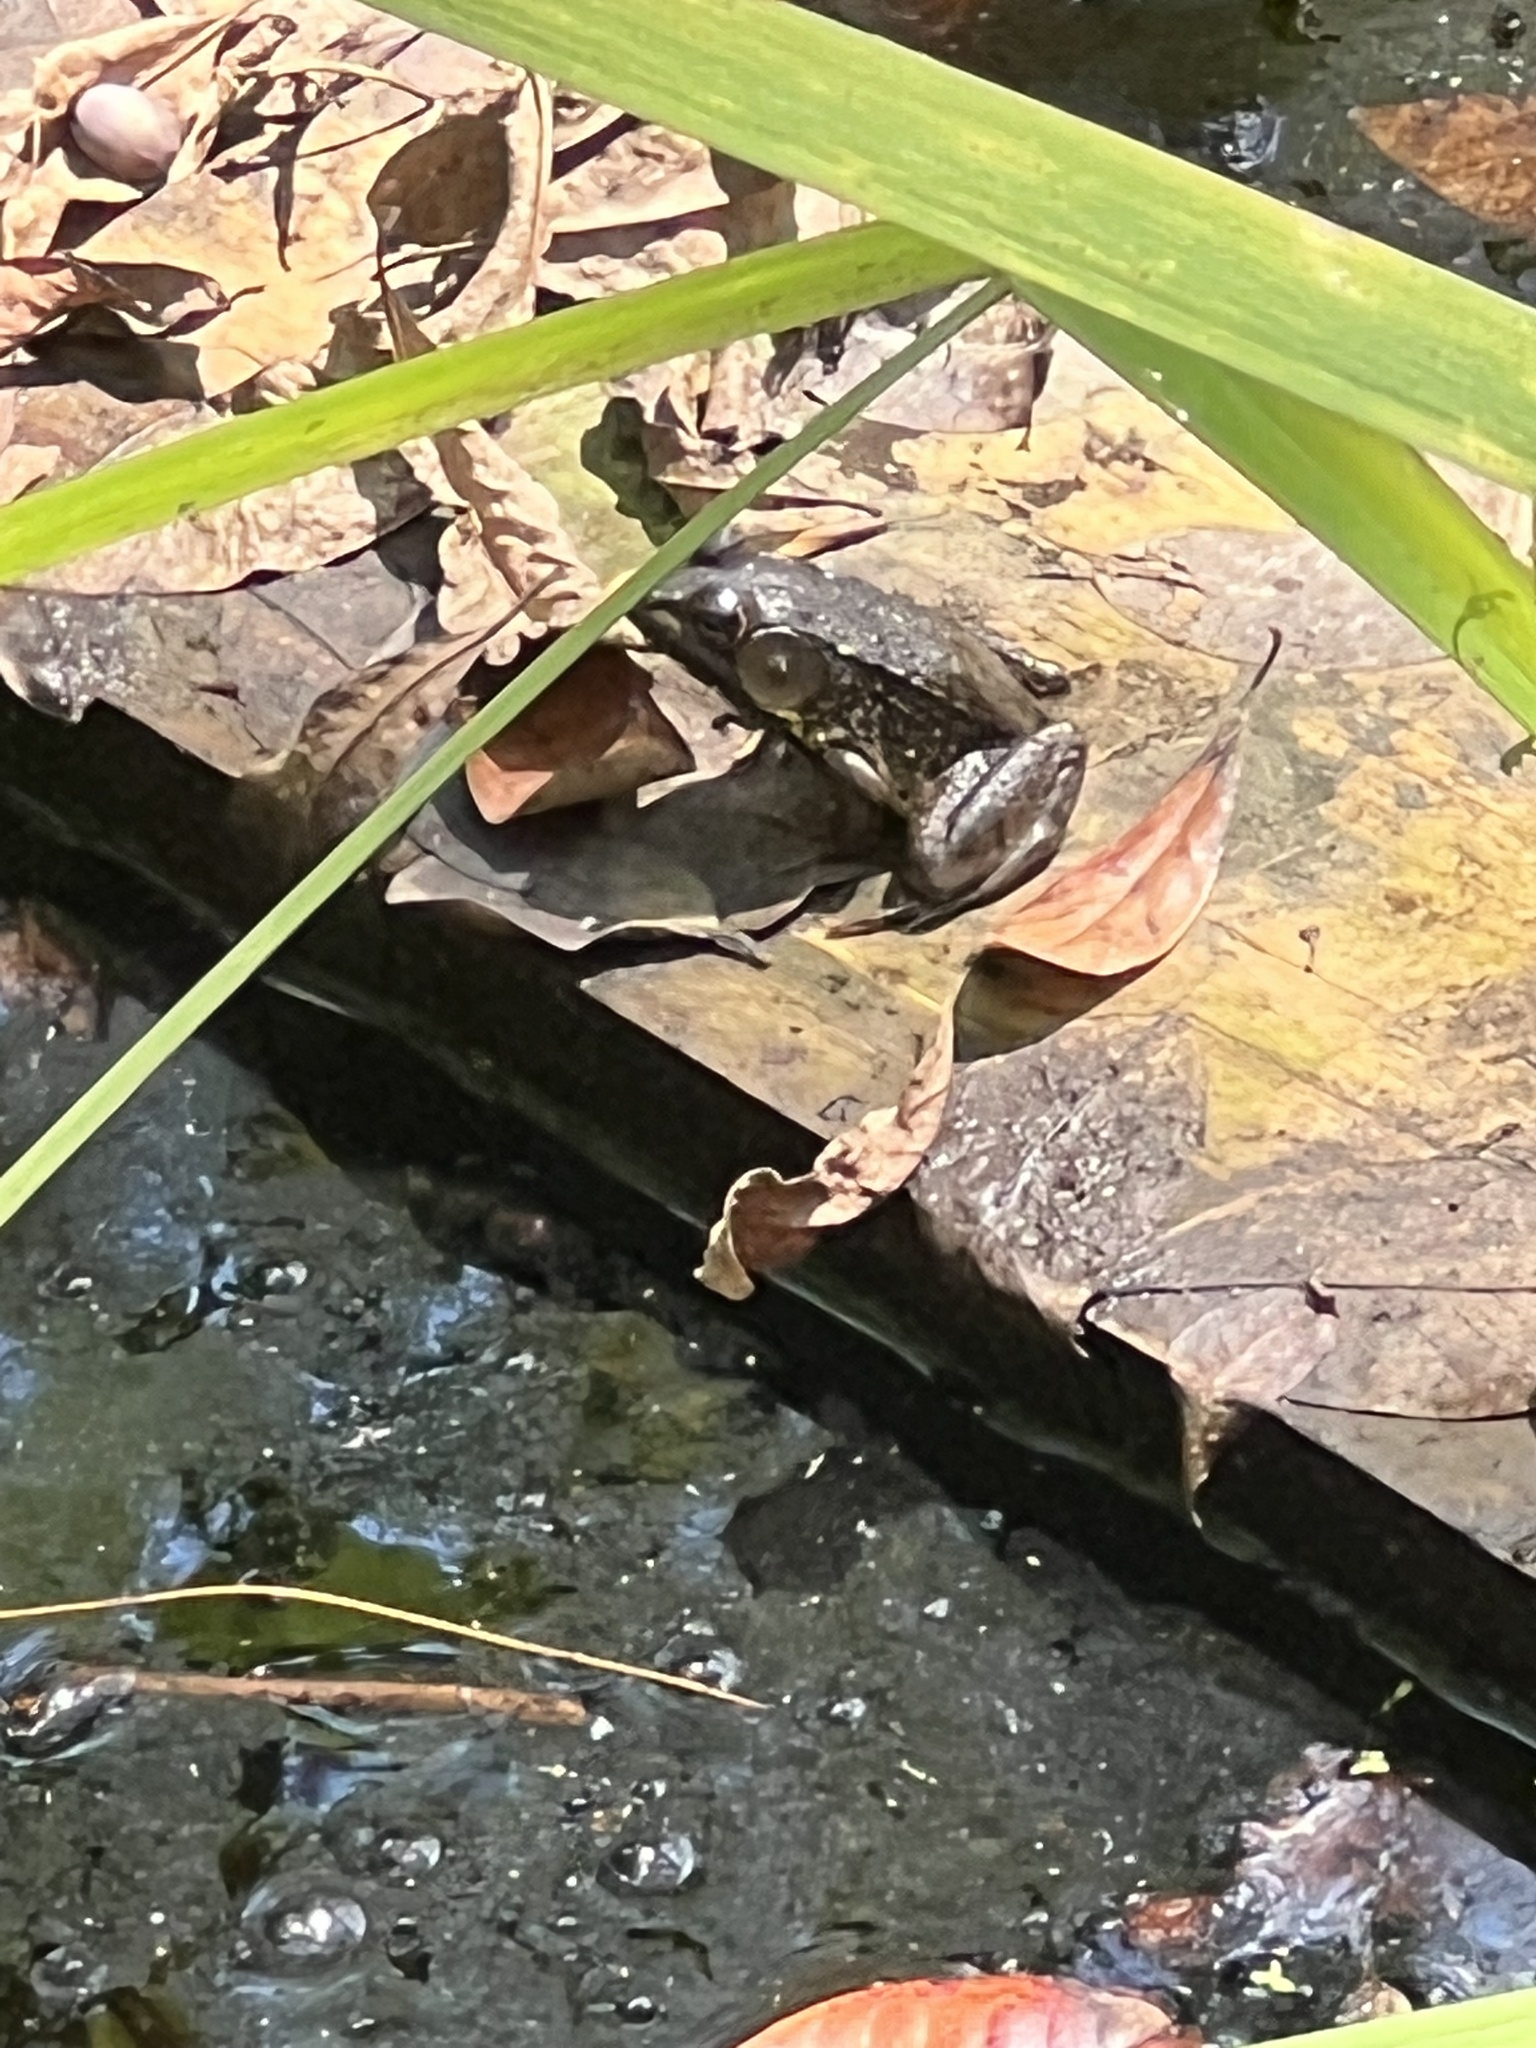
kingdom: Animalia
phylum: Chordata
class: Amphibia
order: Anura
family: Ranidae
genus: Lithobates
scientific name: Lithobates clamitans
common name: Green frog
